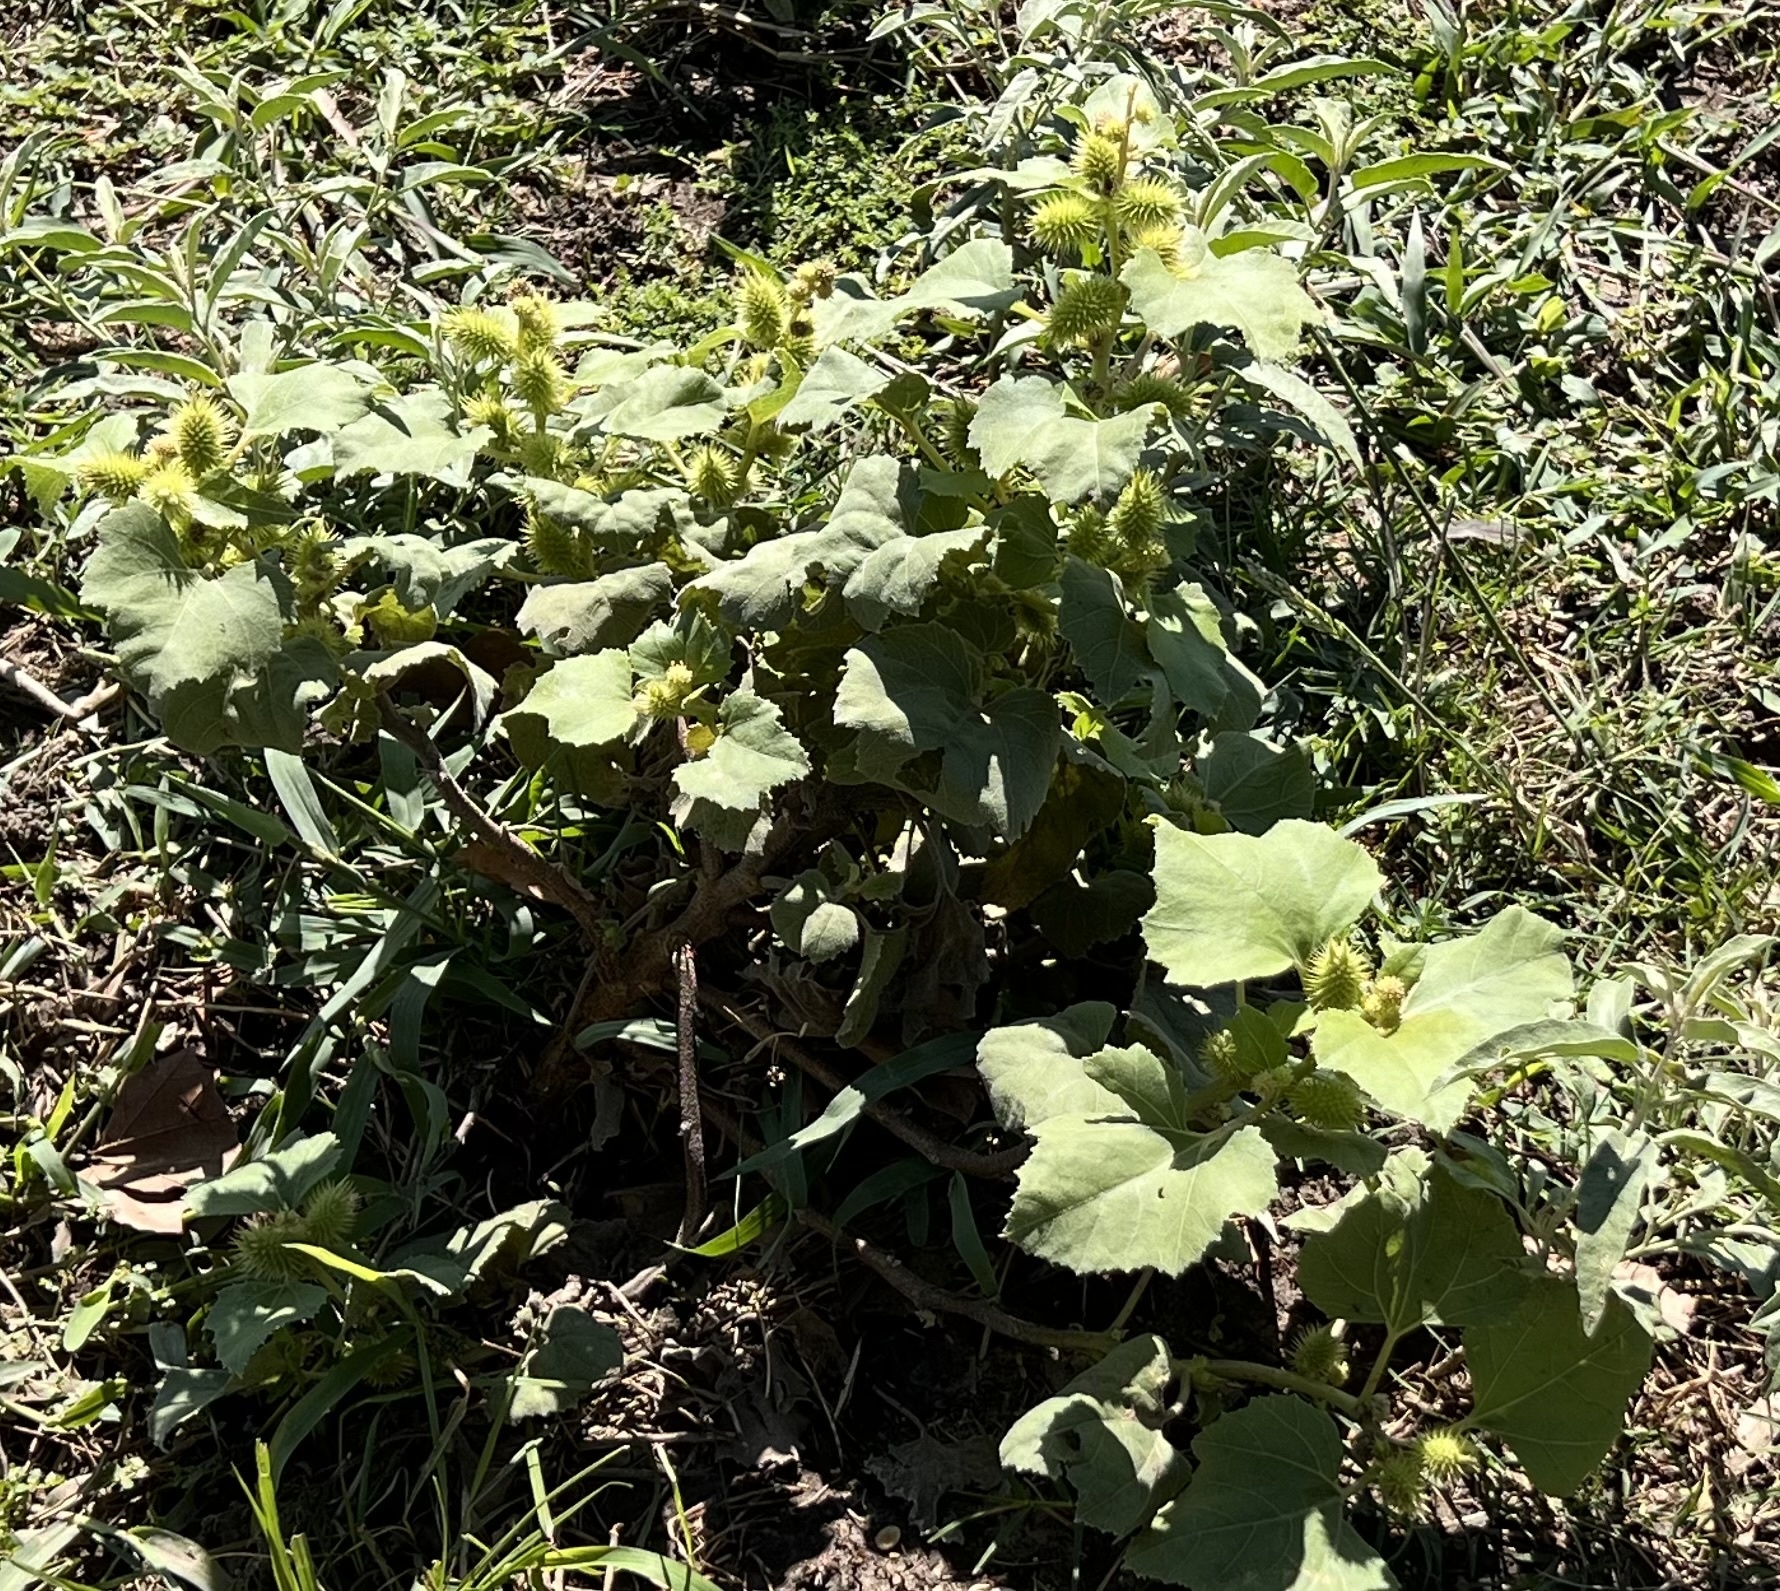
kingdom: Plantae
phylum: Tracheophyta
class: Magnoliopsida
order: Asterales
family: Asteraceae
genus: Xanthium
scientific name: Xanthium strumarium
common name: Rough cocklebur
